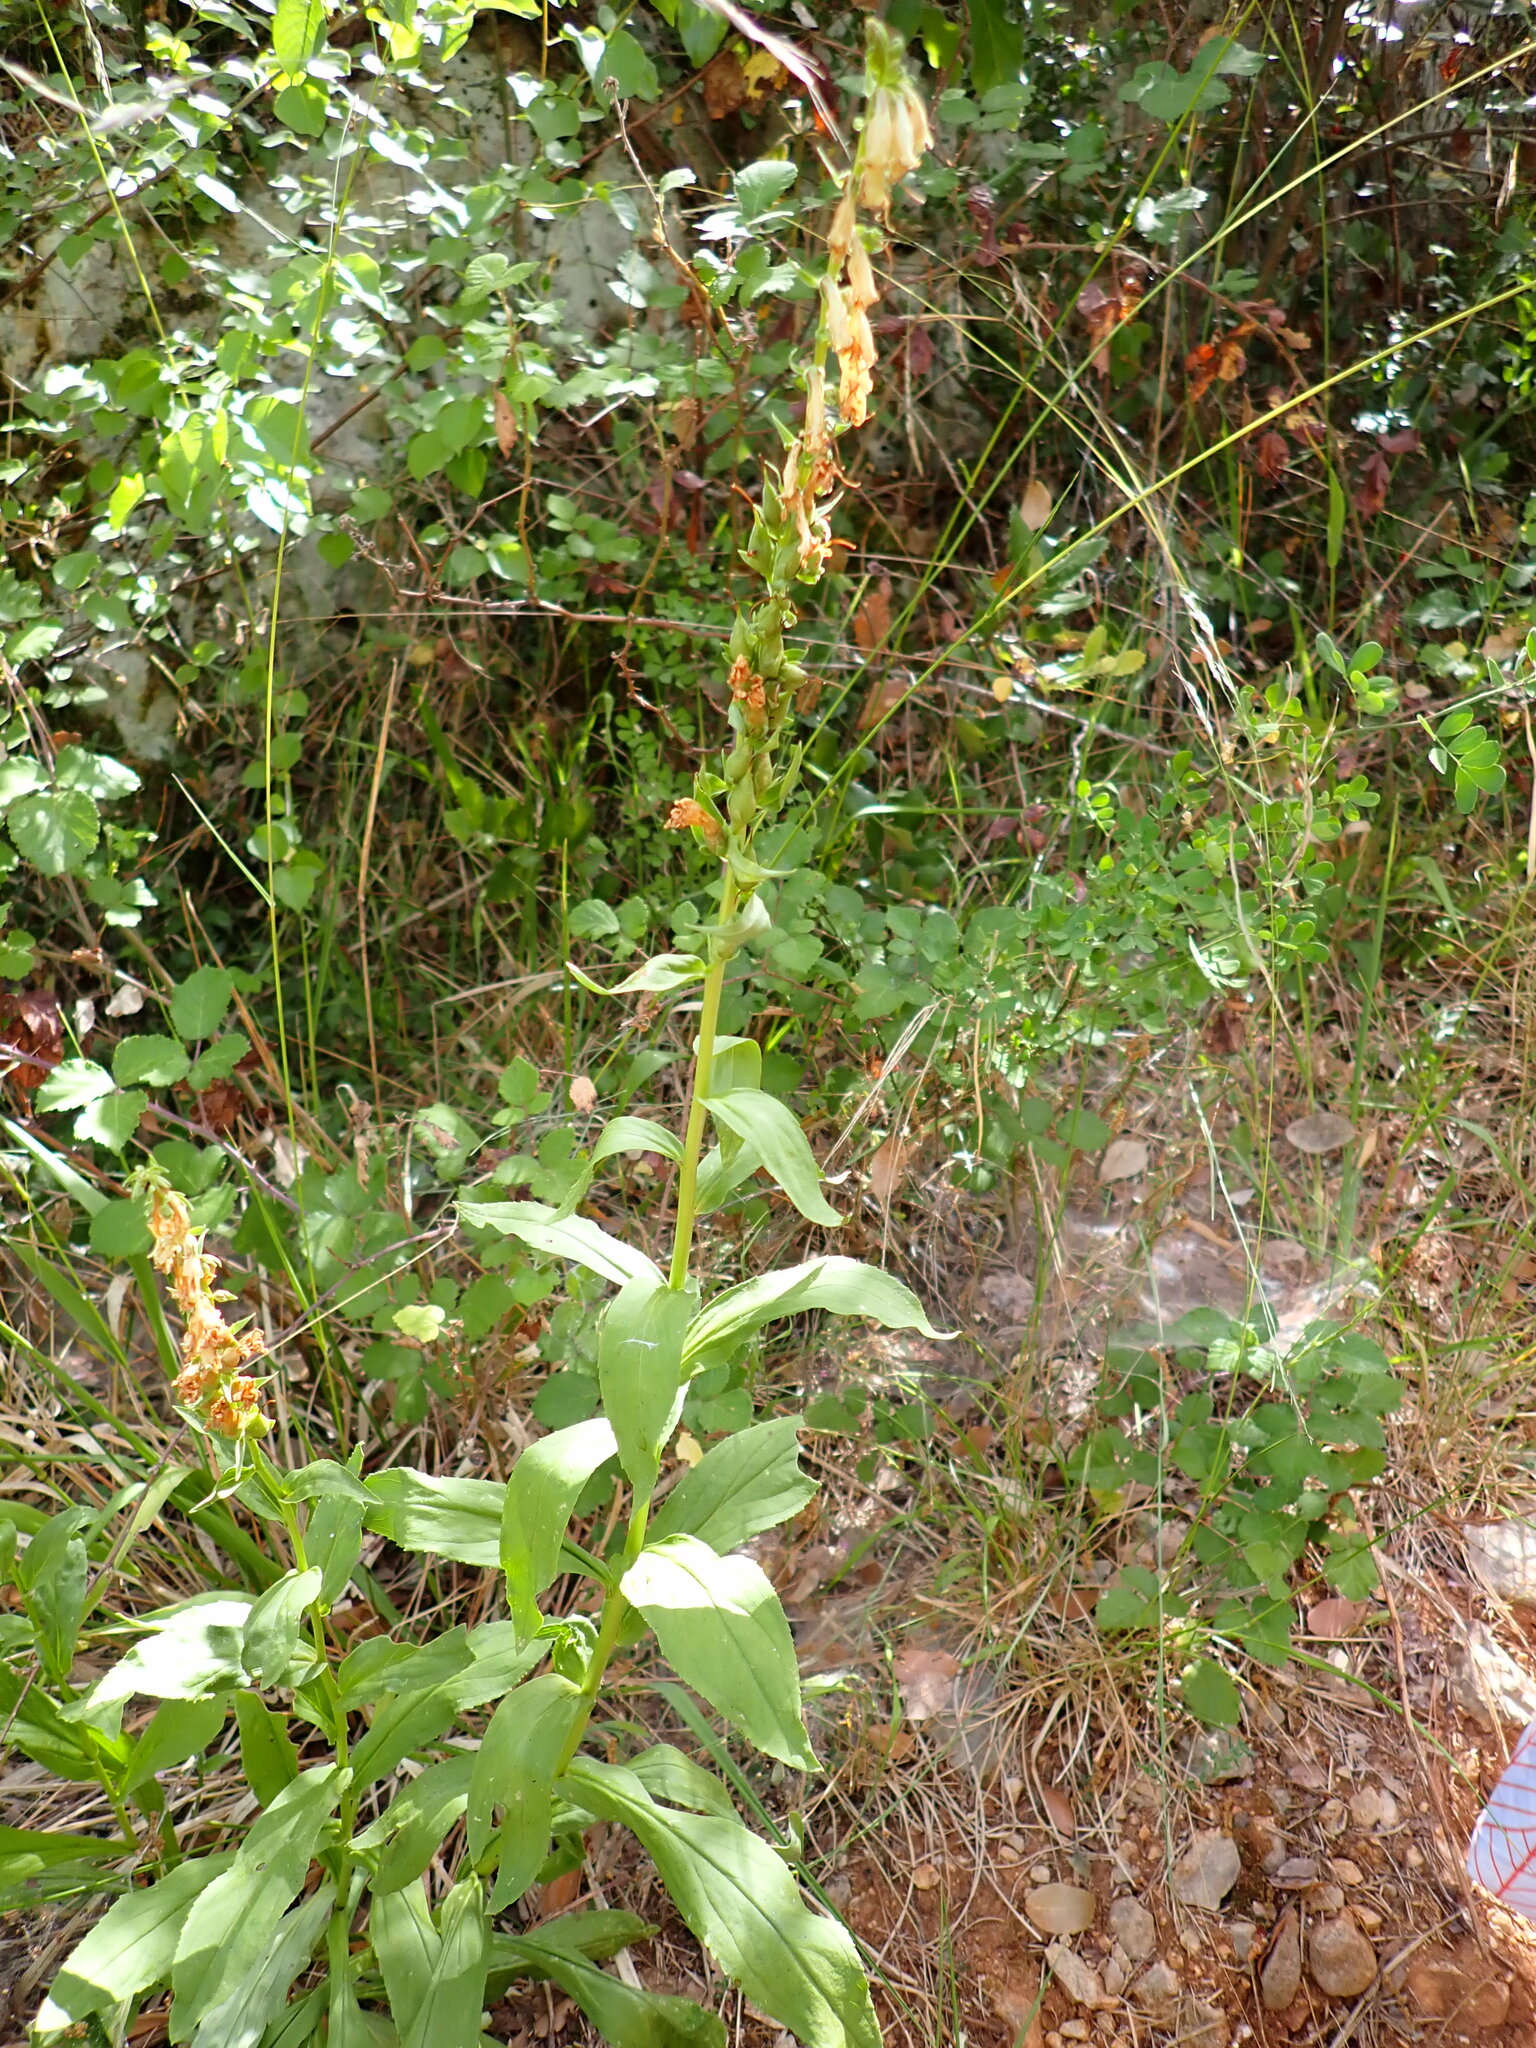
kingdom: Plantae
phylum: Tracheophyta
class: Magnoliopsida
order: Lamiales
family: Plantaginaceae
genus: Digitalis
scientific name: Digitalis lutea
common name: Straw foxglove
